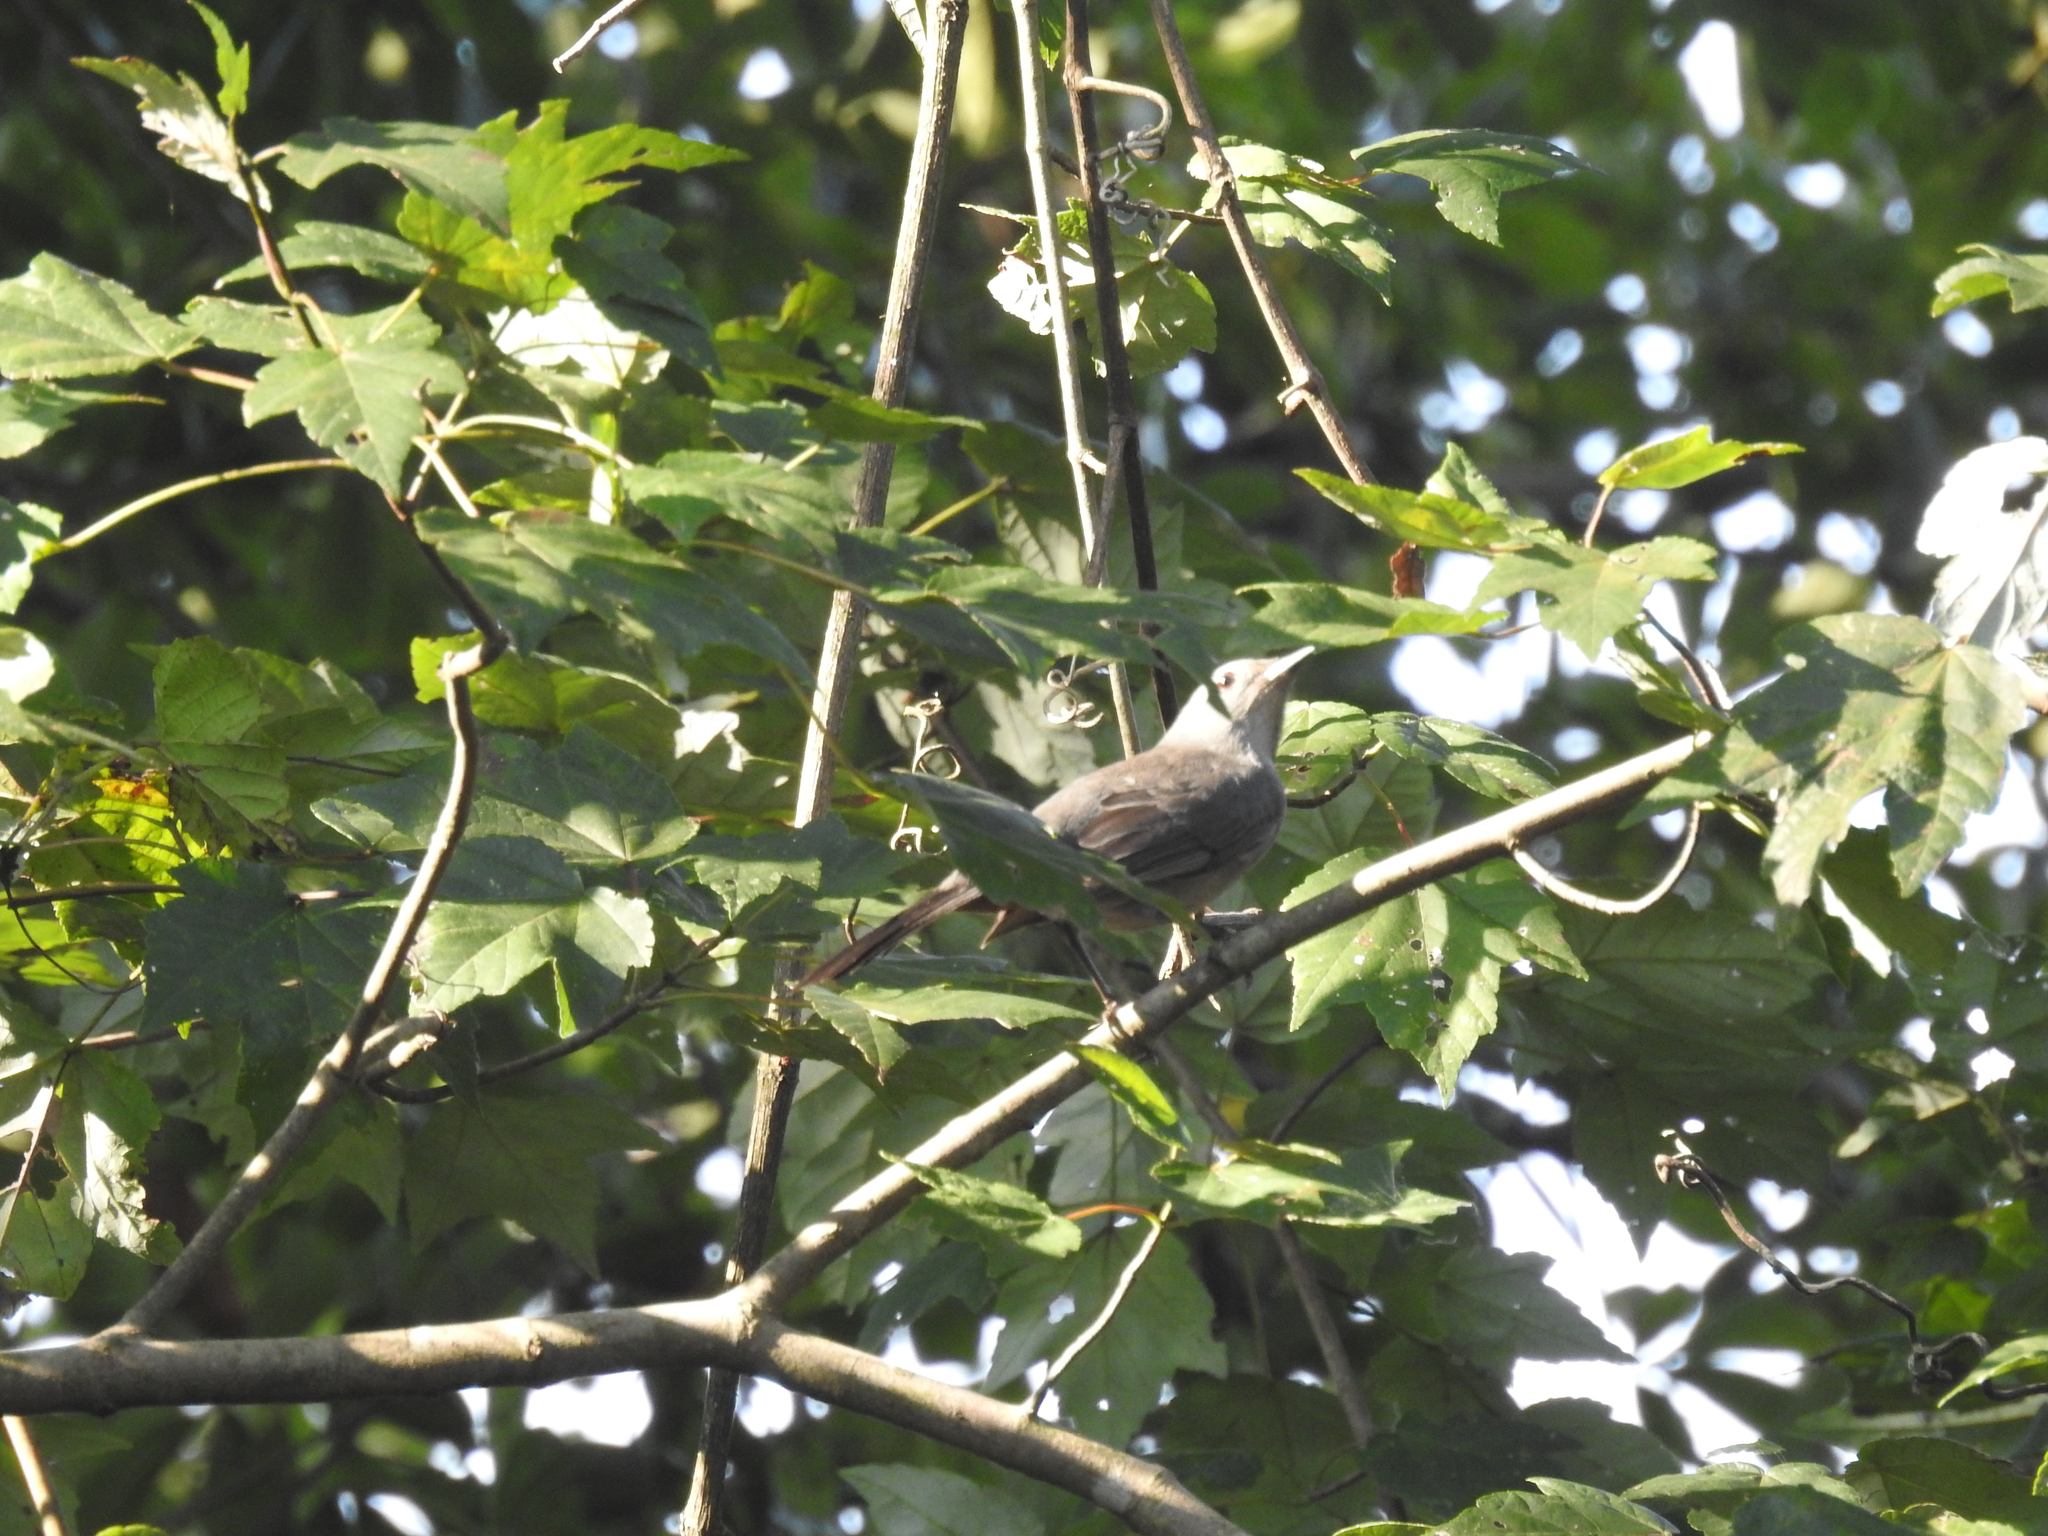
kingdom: Animalia
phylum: Chordata
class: Aves
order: Passeriformes
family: Mimidae
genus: Dumetella
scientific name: Dumetella carolinensis
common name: Gray catbird
